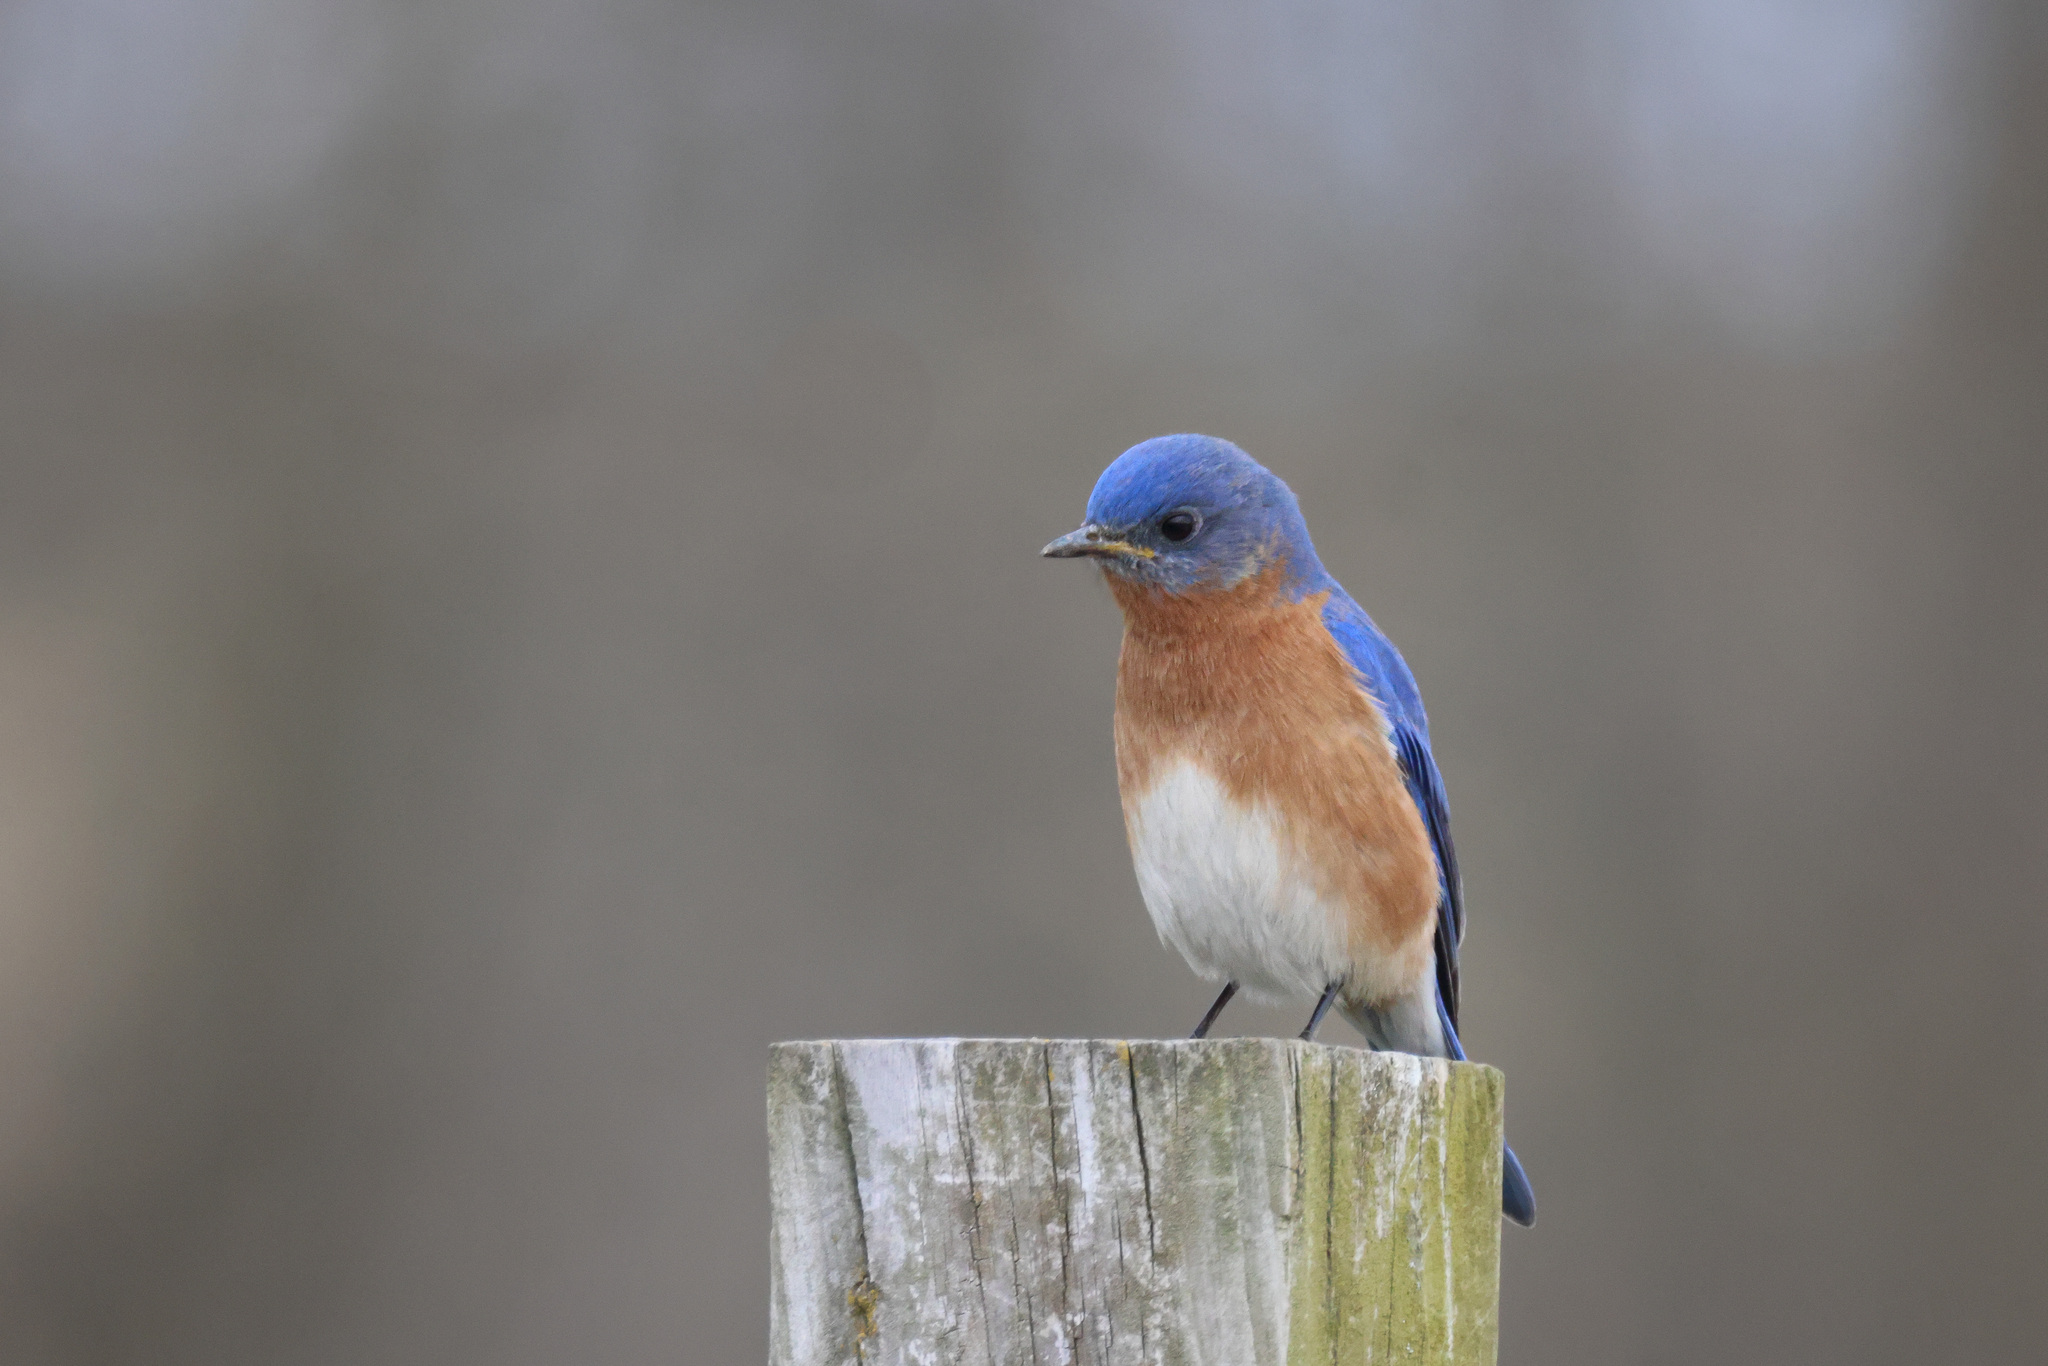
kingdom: Animalia
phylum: Chordata
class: Aves
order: Passeriformes
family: Turdidae
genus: Sialia
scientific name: Sialia sialis
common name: Eastern bluebird
